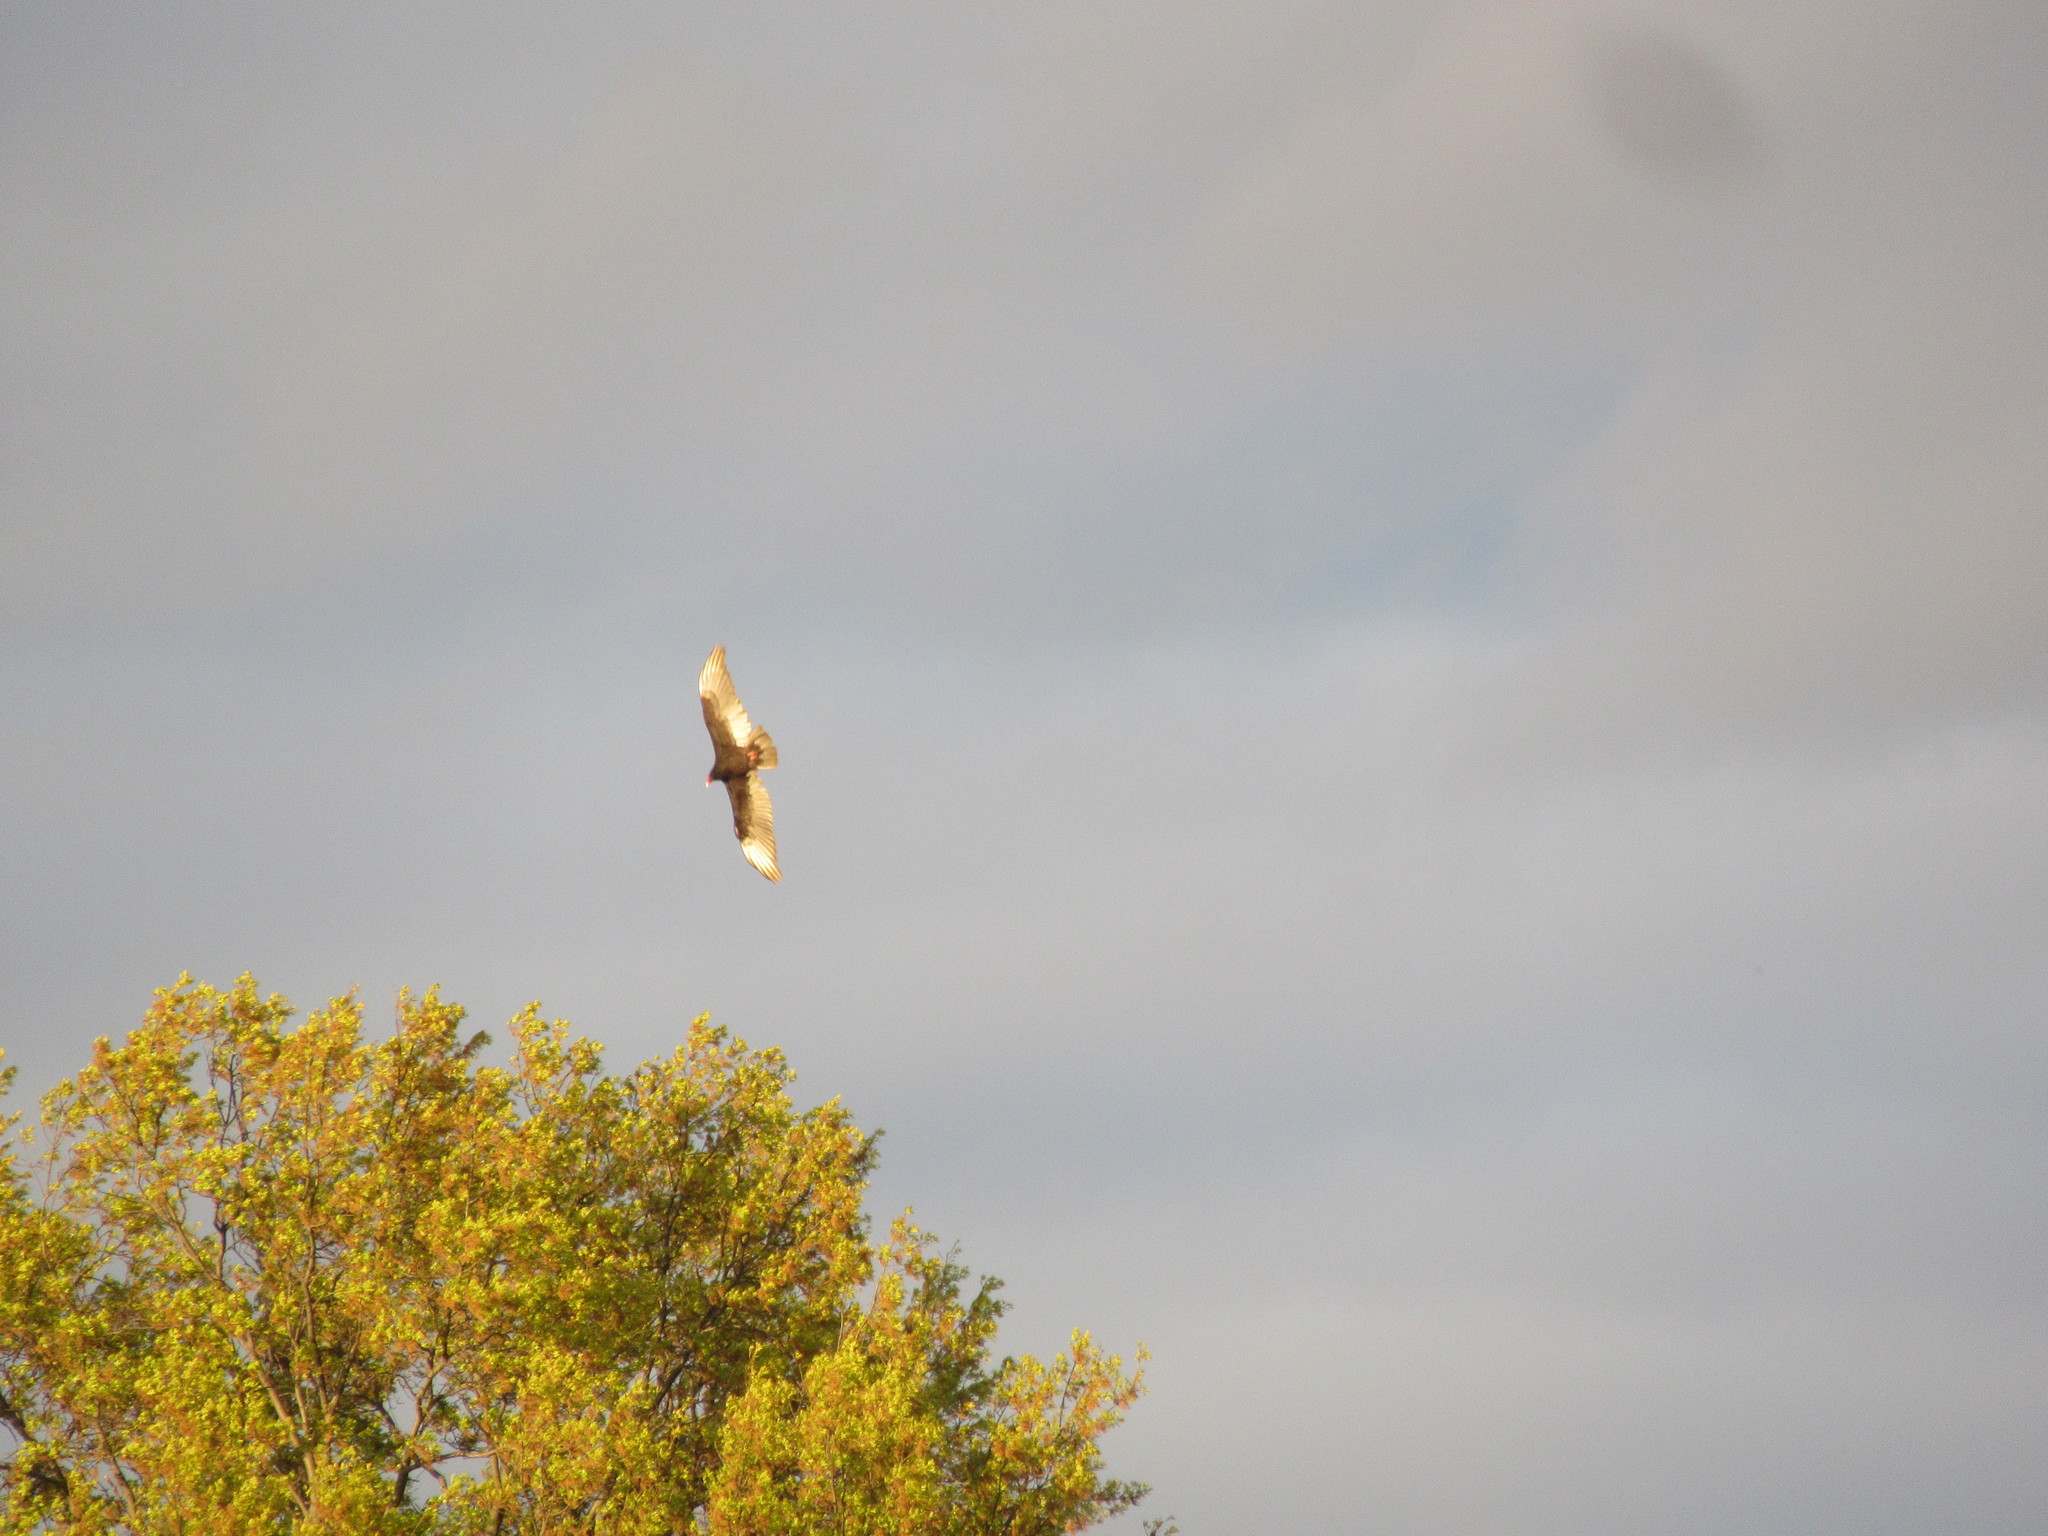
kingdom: Animalia
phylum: Chordata
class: Aves
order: Accipitriformes
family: Cathartidae
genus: Cathartes
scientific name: Cathartes aura
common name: Turkey vulture
